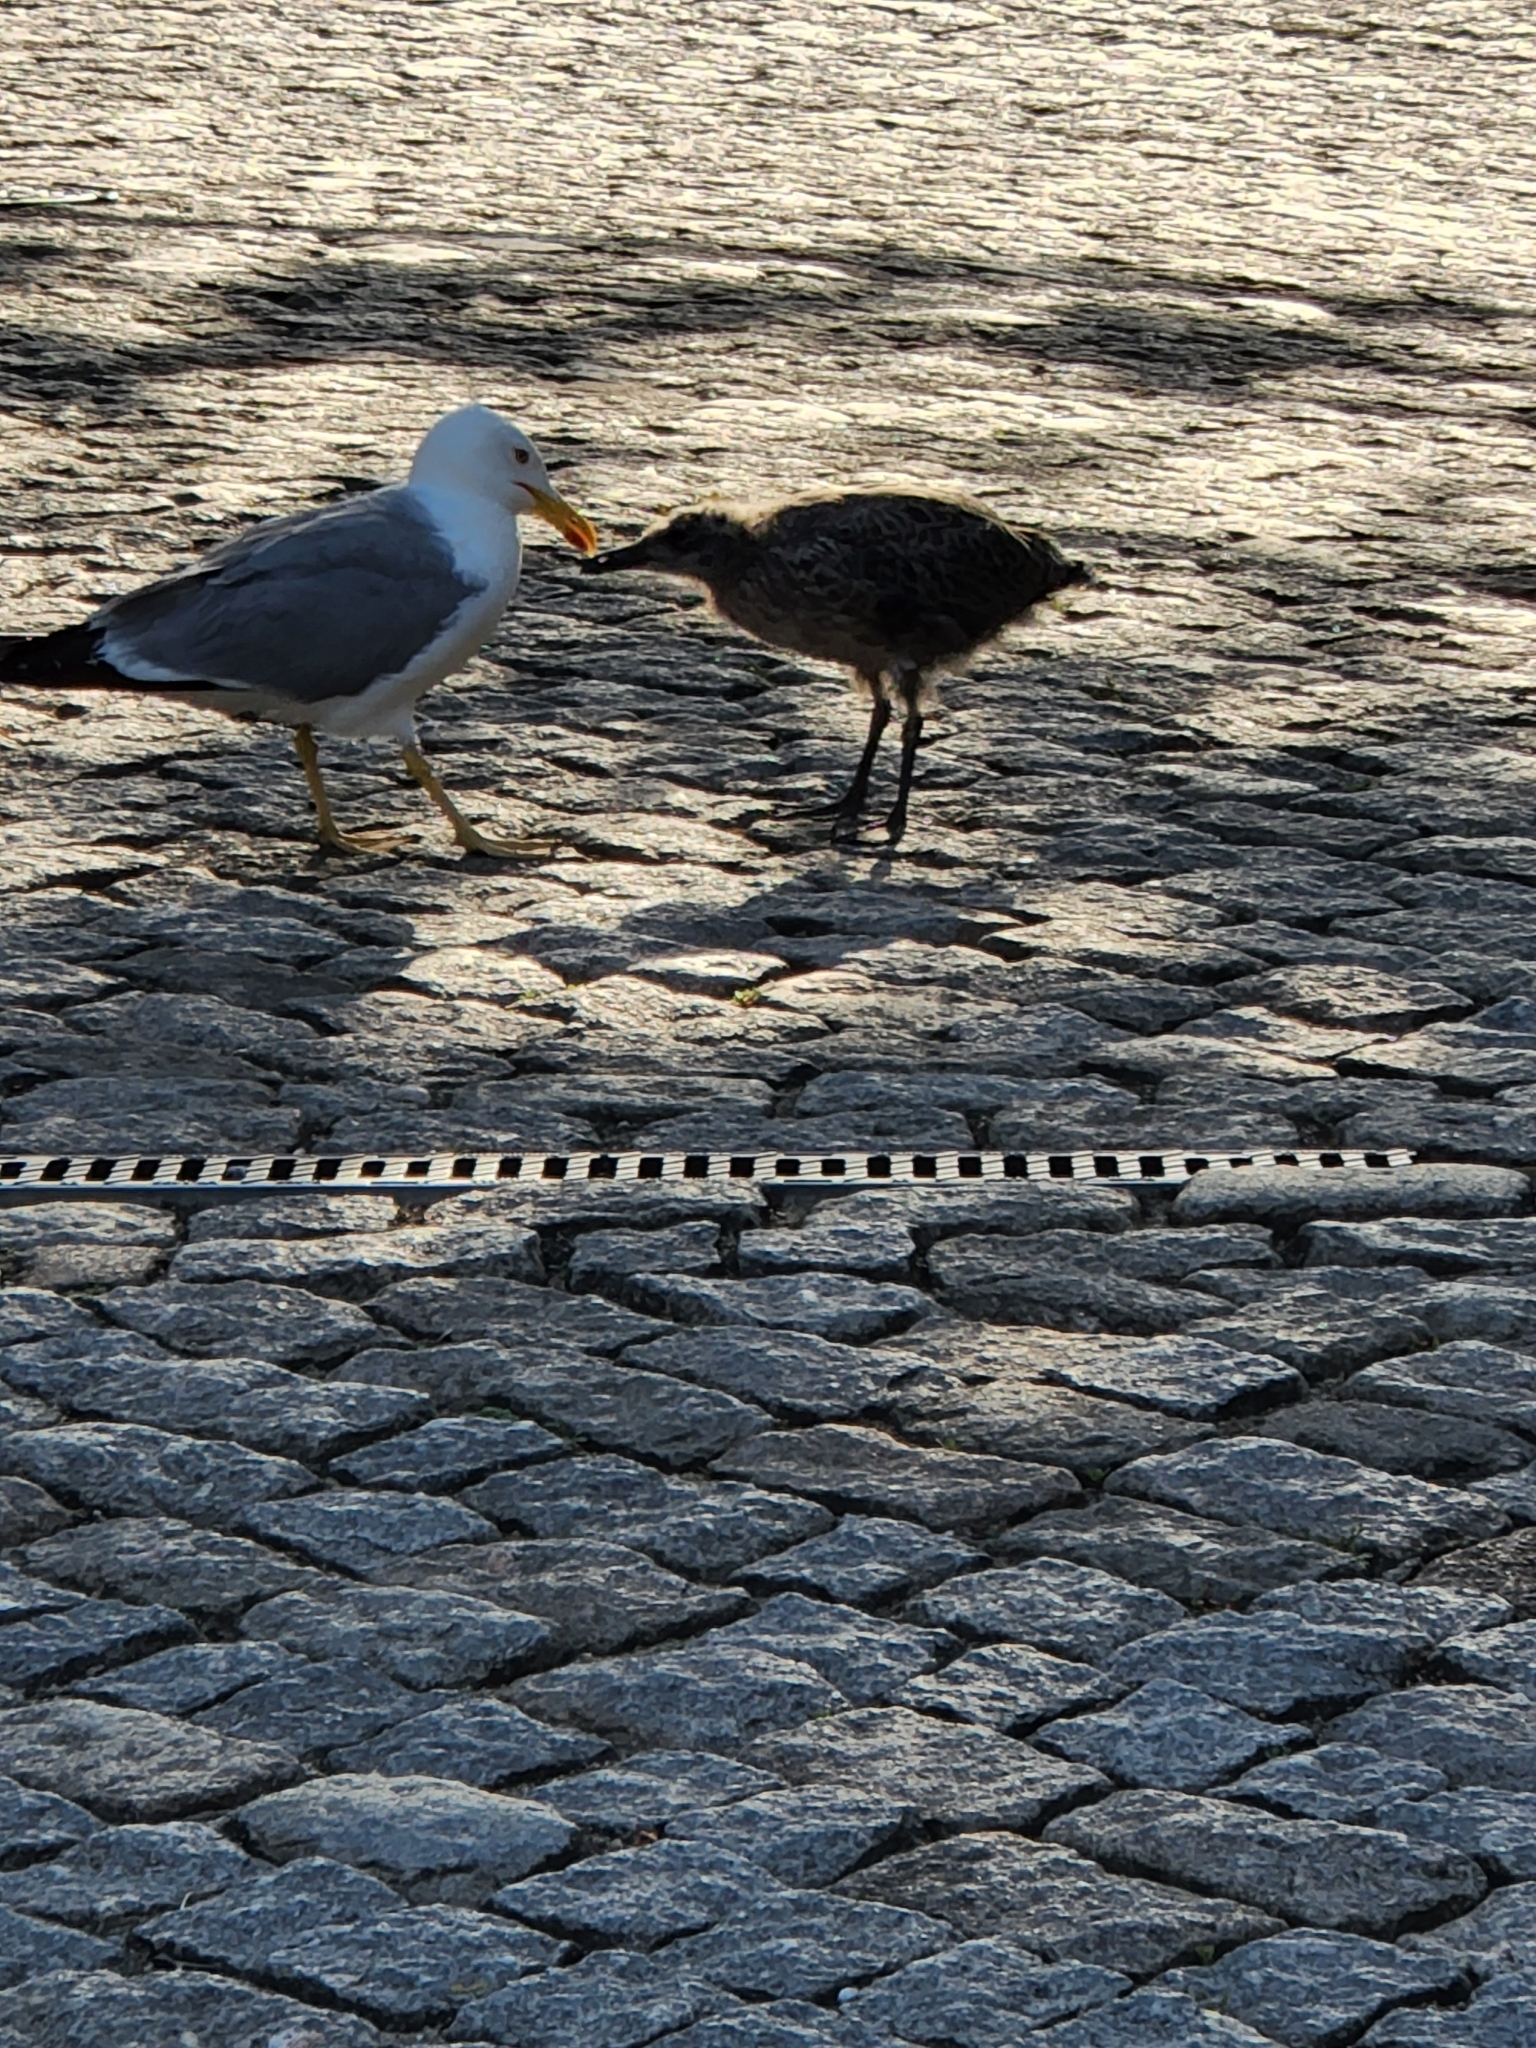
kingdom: Animalia
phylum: Chordata
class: Aves
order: Charadriiformes
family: Laridae
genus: Larus
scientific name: Larus michahellis
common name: Yellow-legged gull
